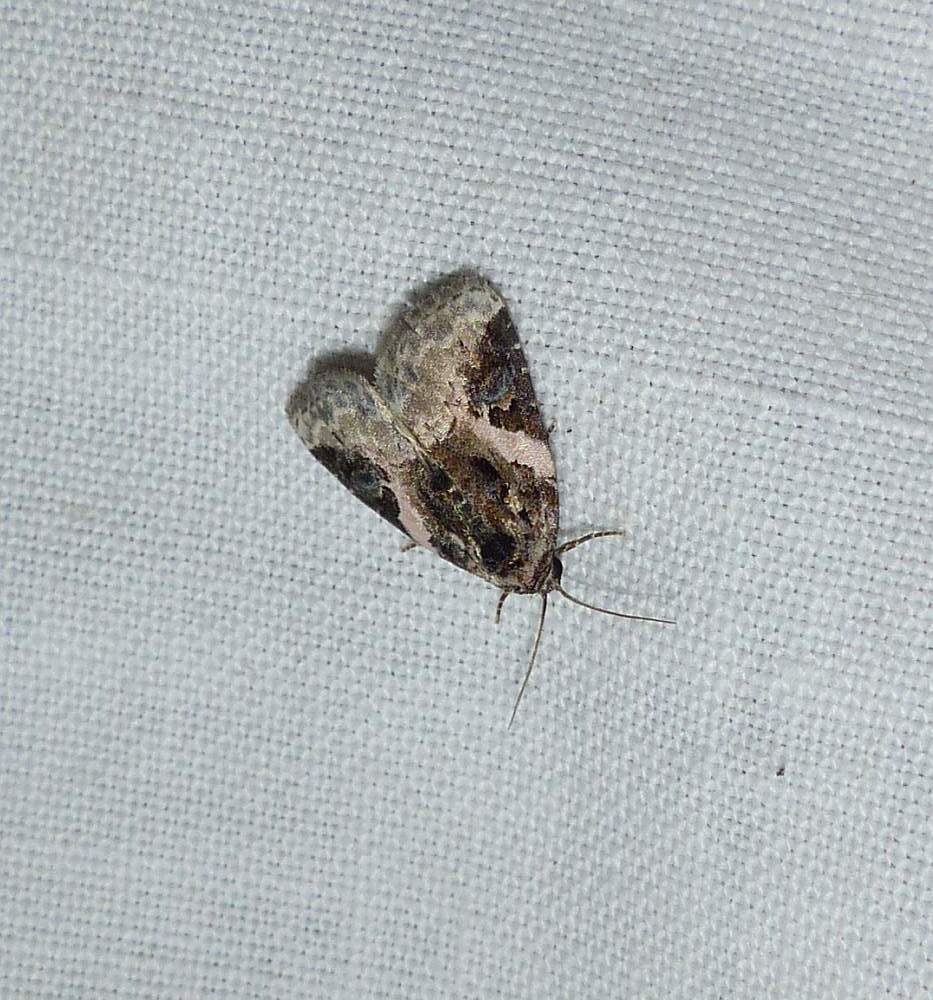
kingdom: Animalia
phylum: Arthropoda
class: Insecta
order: Lepidoptera
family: Noctuidae
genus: Pseudeustrotia
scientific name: Pseudeustrotia carneola
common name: Pink-barred lithacodia moth
